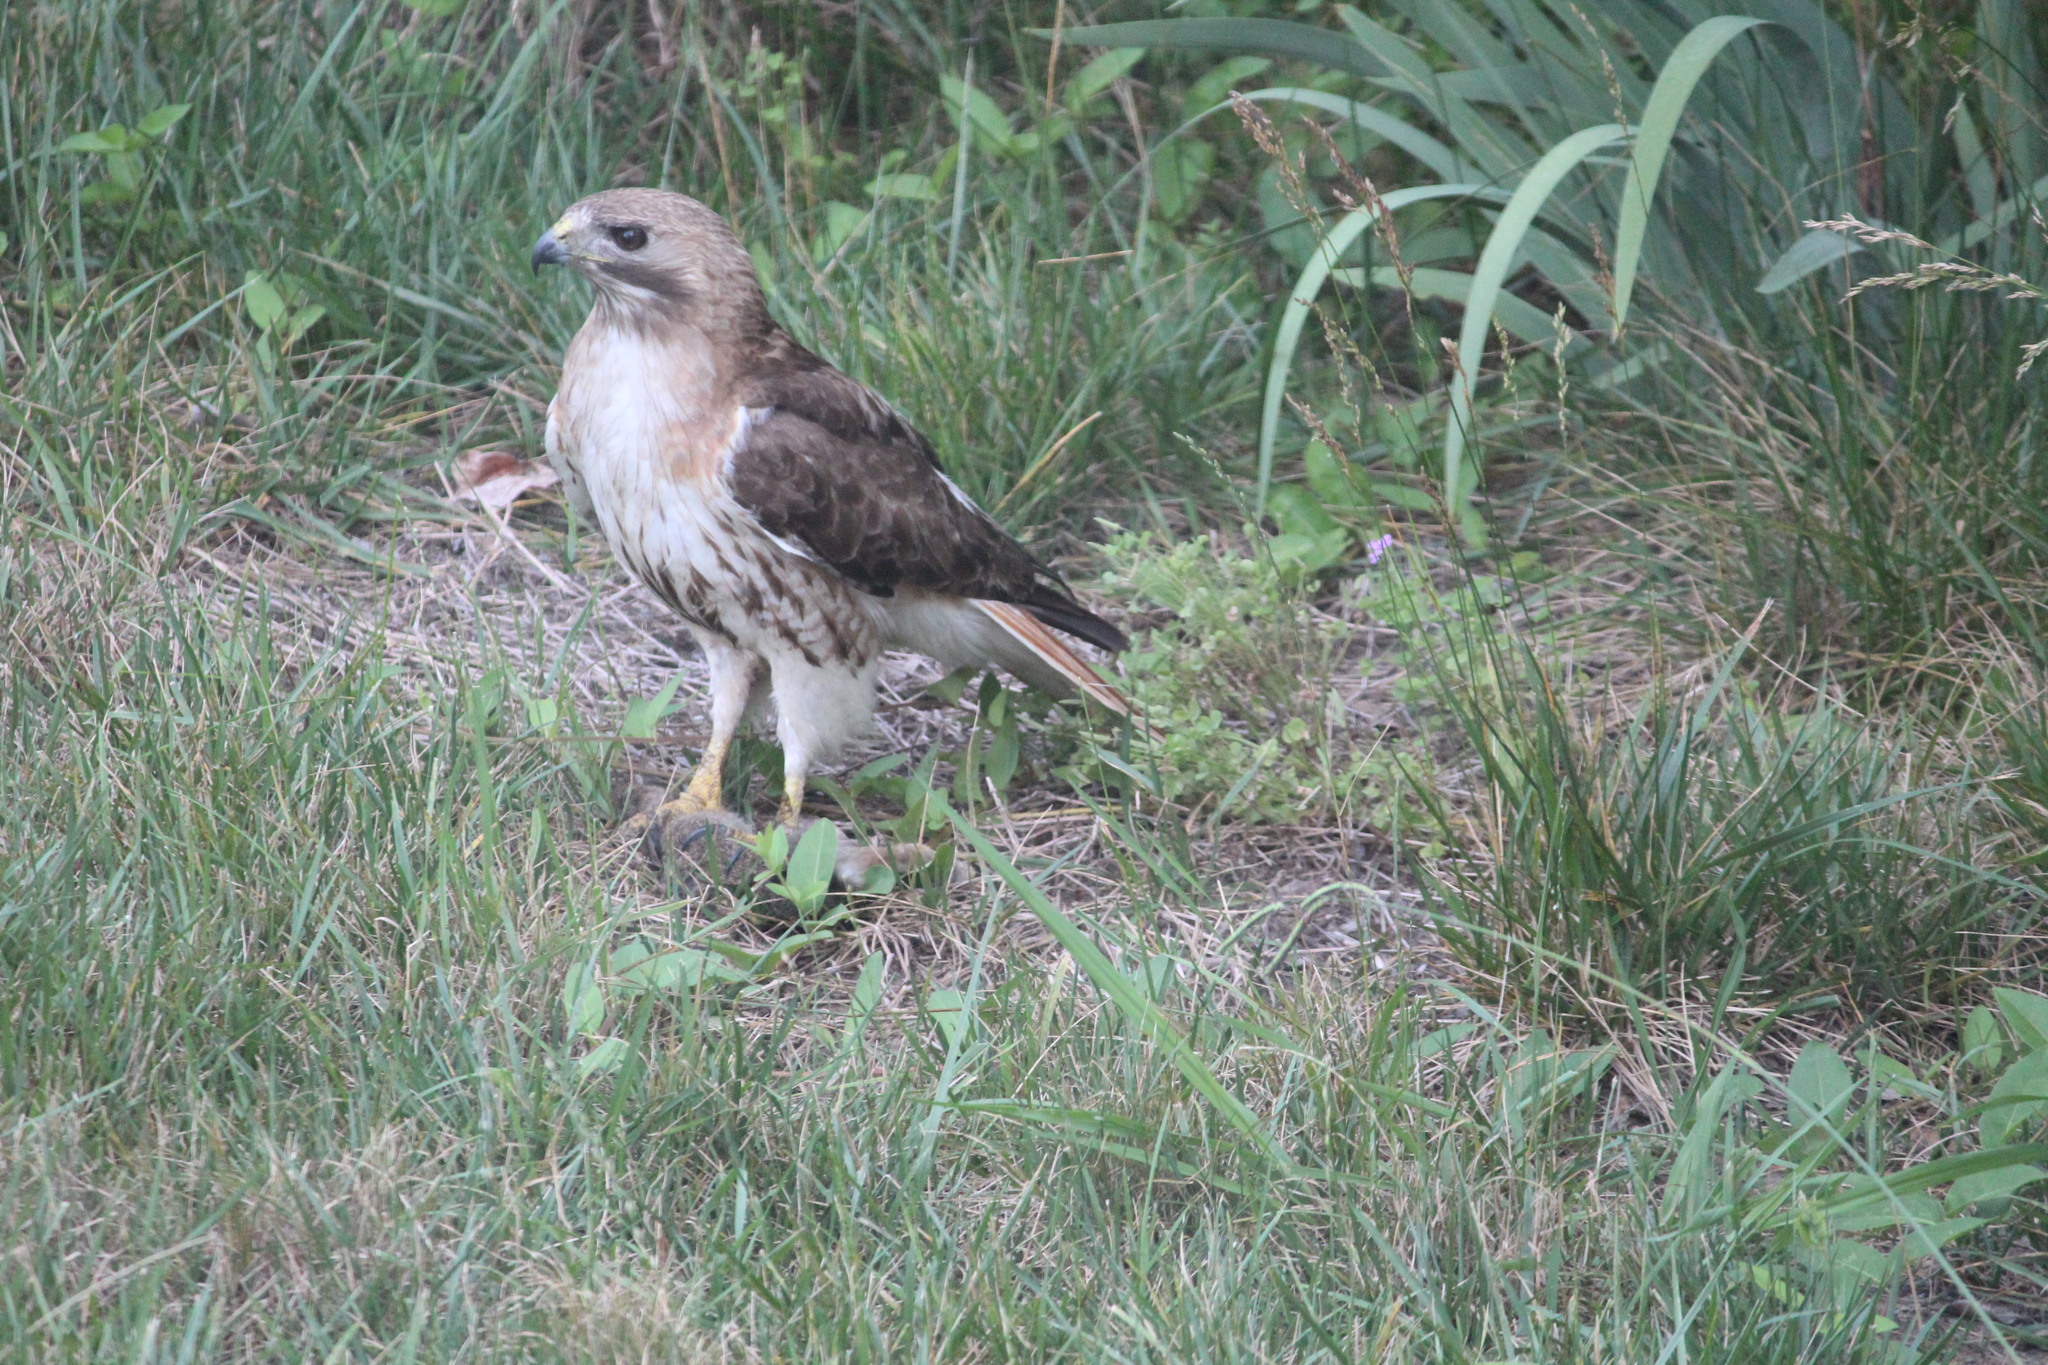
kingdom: Animalia
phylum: Chordata
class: Aves
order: Accipitriformes
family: Accipitridae
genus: Buteo
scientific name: Buteo jamaicensis
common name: Red-tailed hawk
